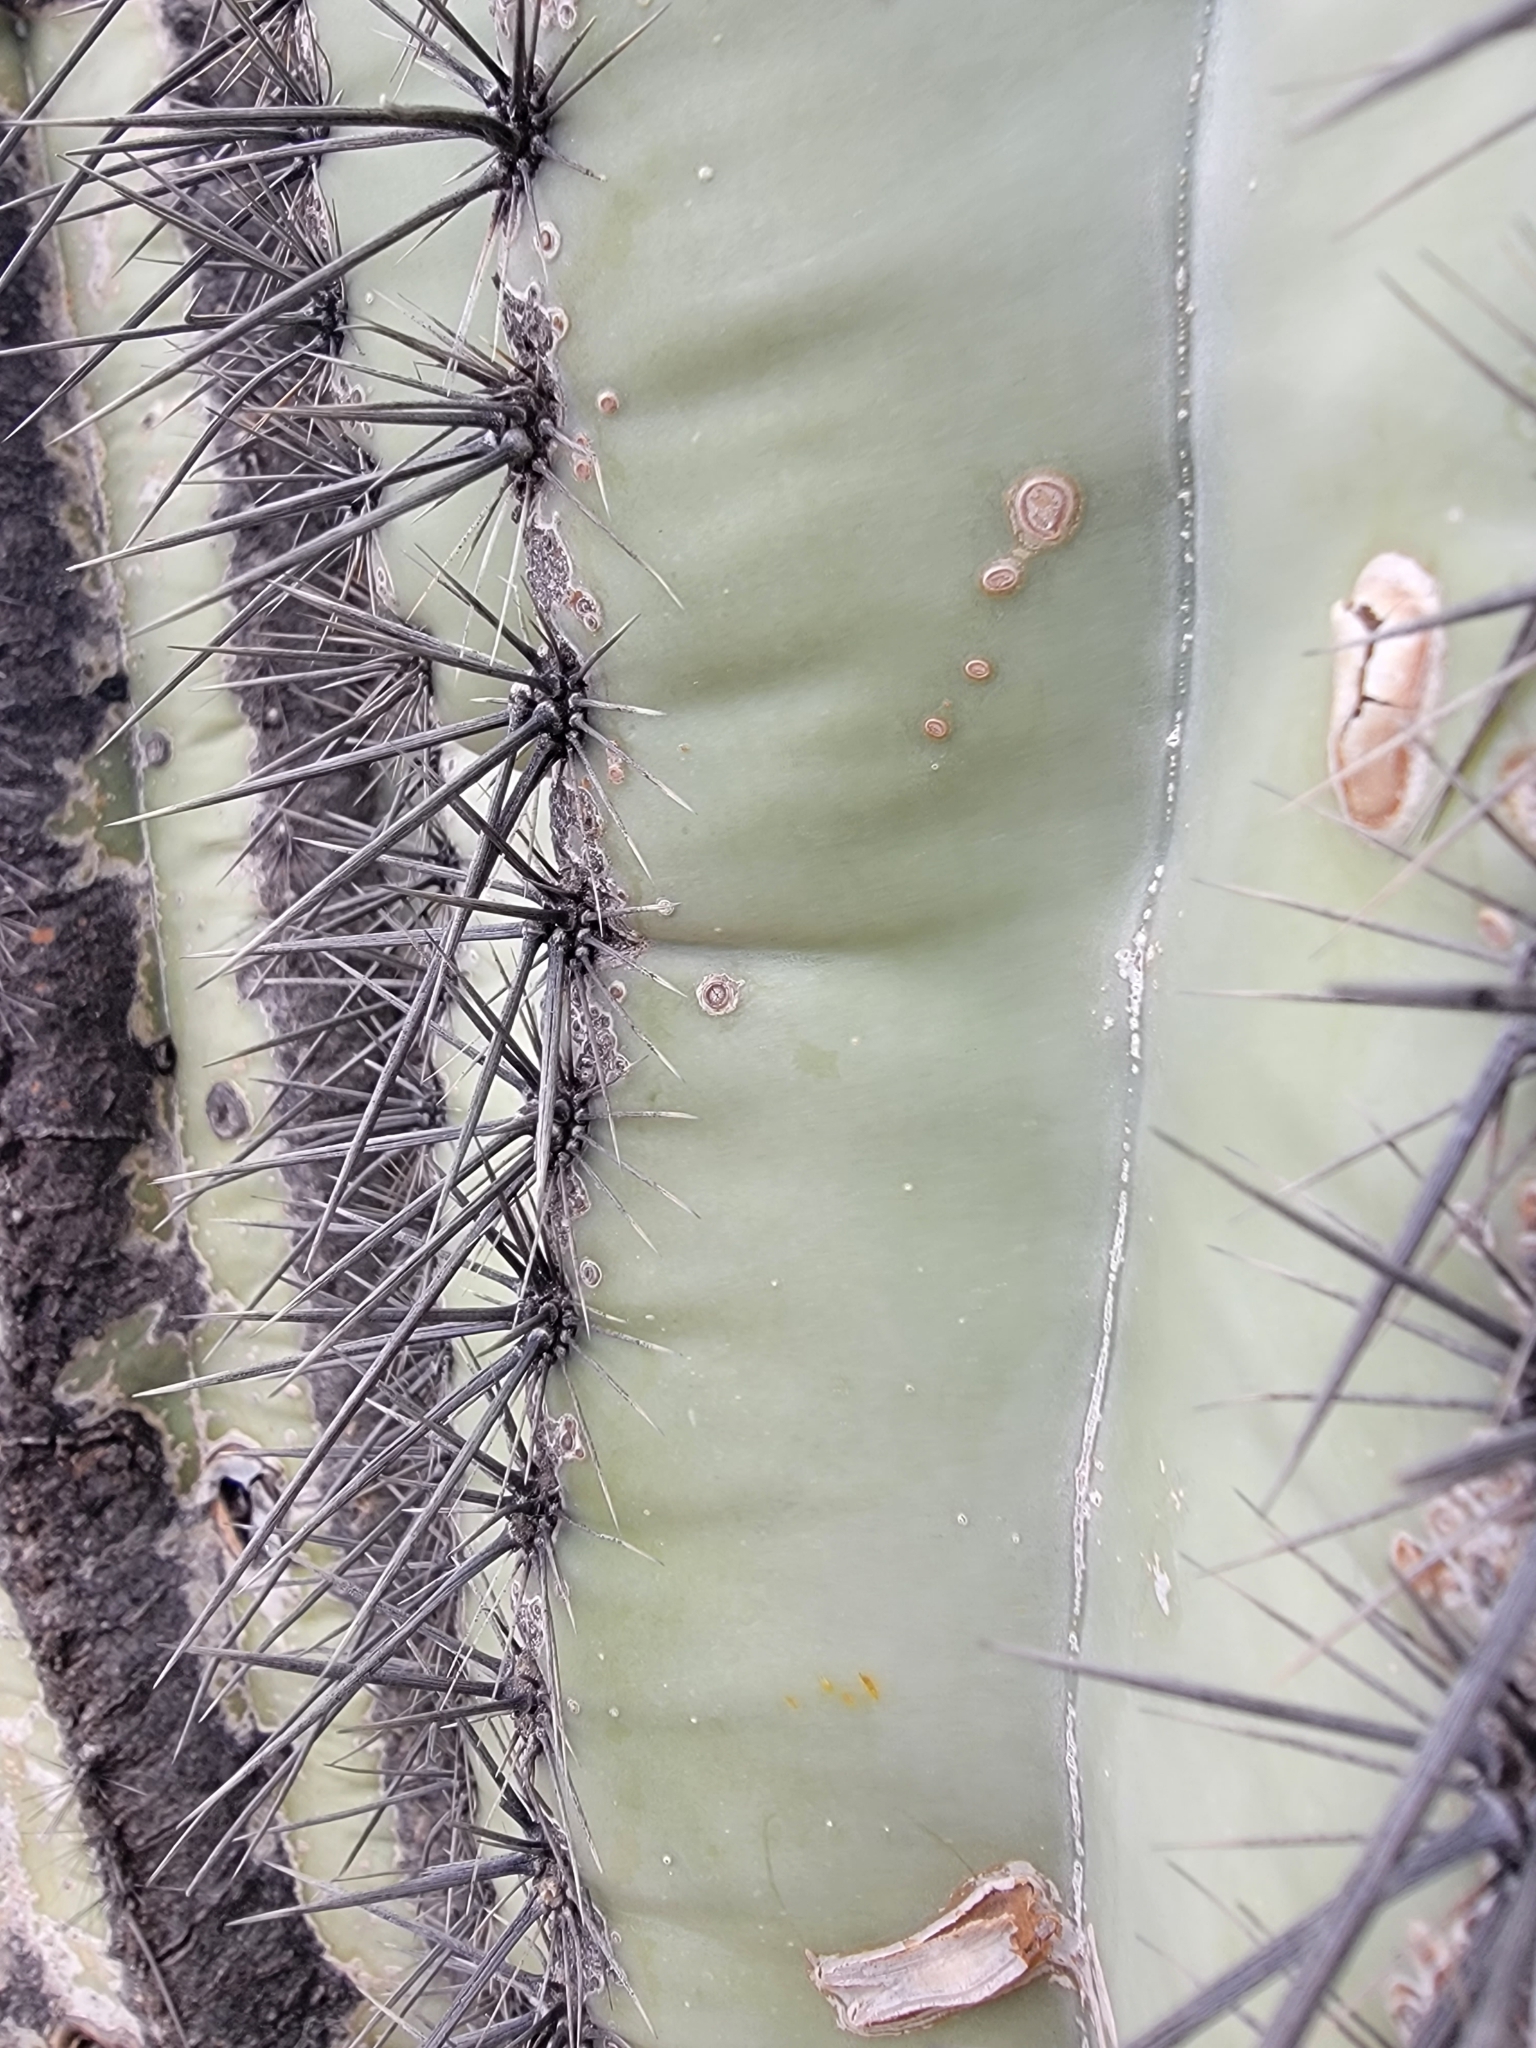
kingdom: Plantae
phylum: Tracheophyta
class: Magnoliopsida
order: Caryophyllales
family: Cactaceae
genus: Carnegiea
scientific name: Carnegiea gigantea
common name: Saguaro
